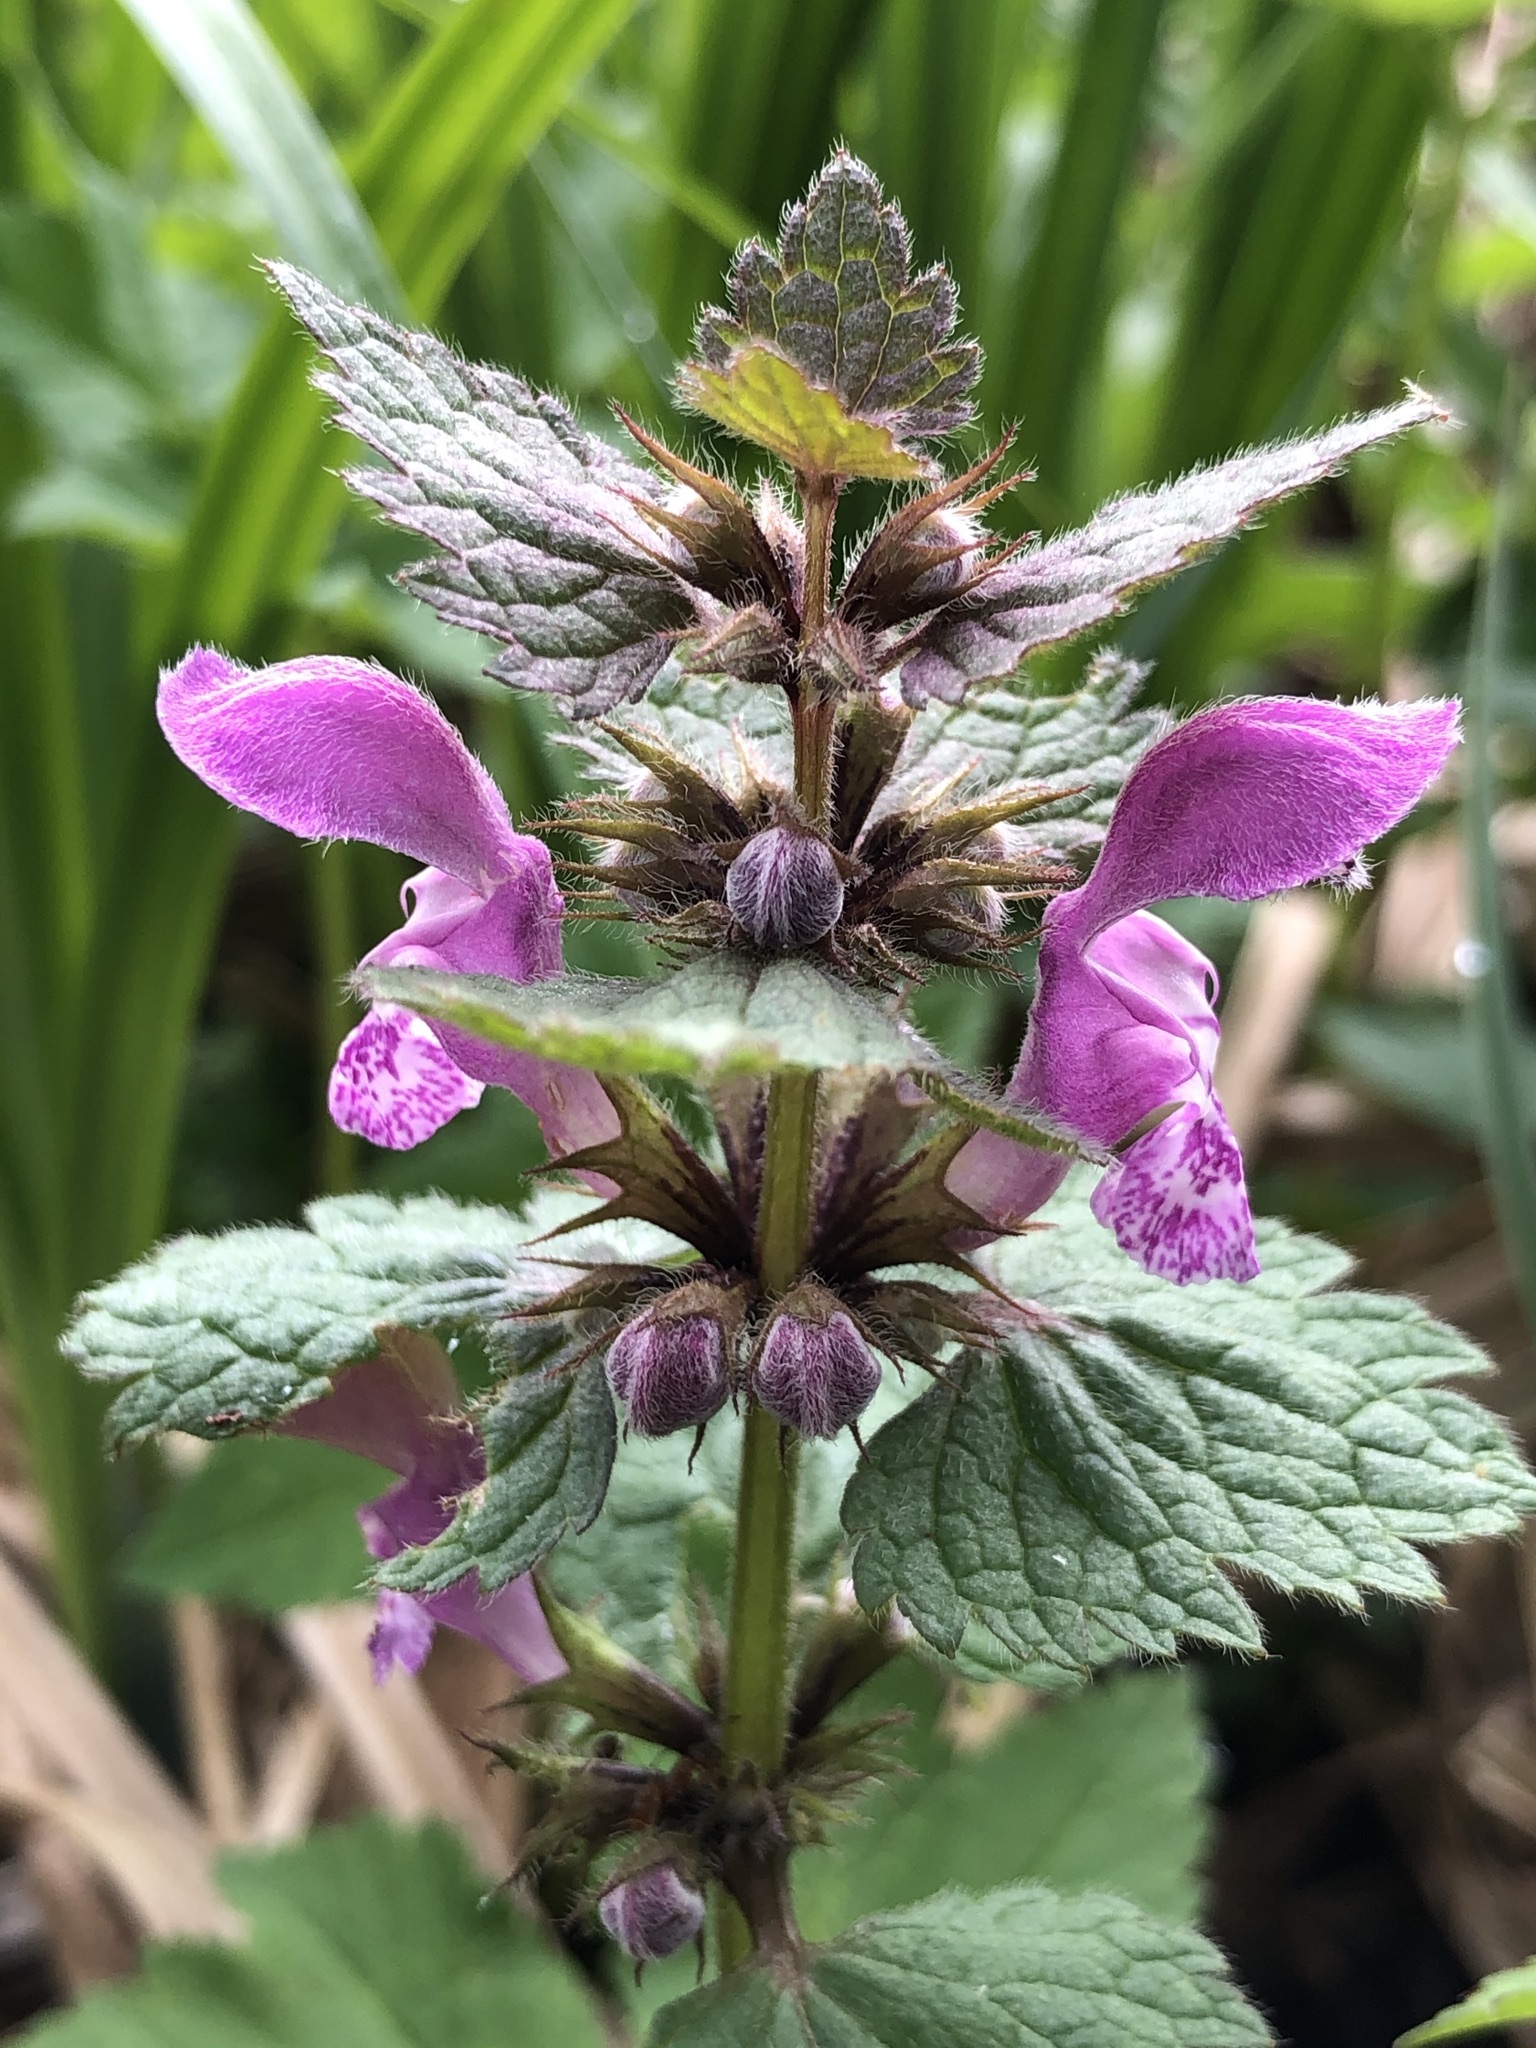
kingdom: Plantae
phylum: Tracheophyta
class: Magnoliopsida
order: Lamiales
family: Lamiaceae
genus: Lamium
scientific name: Lamium maculatum
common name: Spotted dead-nettle
